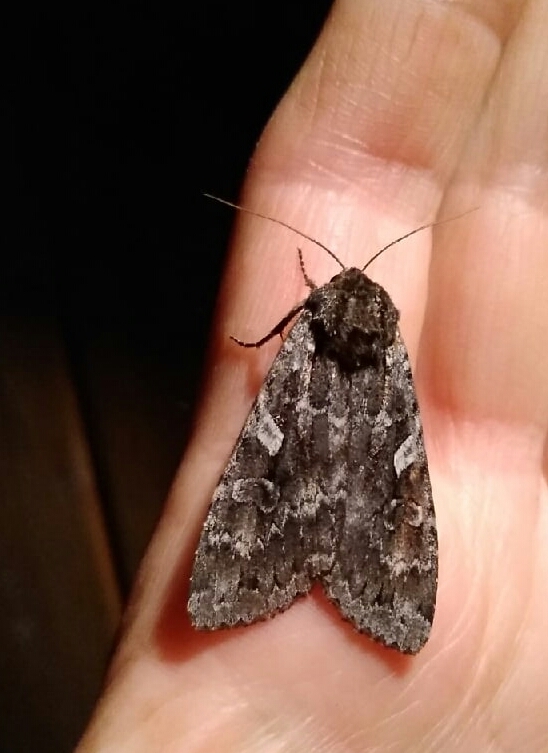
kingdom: Animalia
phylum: Arthropoda
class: Insecta
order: Lepidoptera
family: Noctuidae
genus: Eurois
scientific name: Eurois occulta
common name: Great brocade
